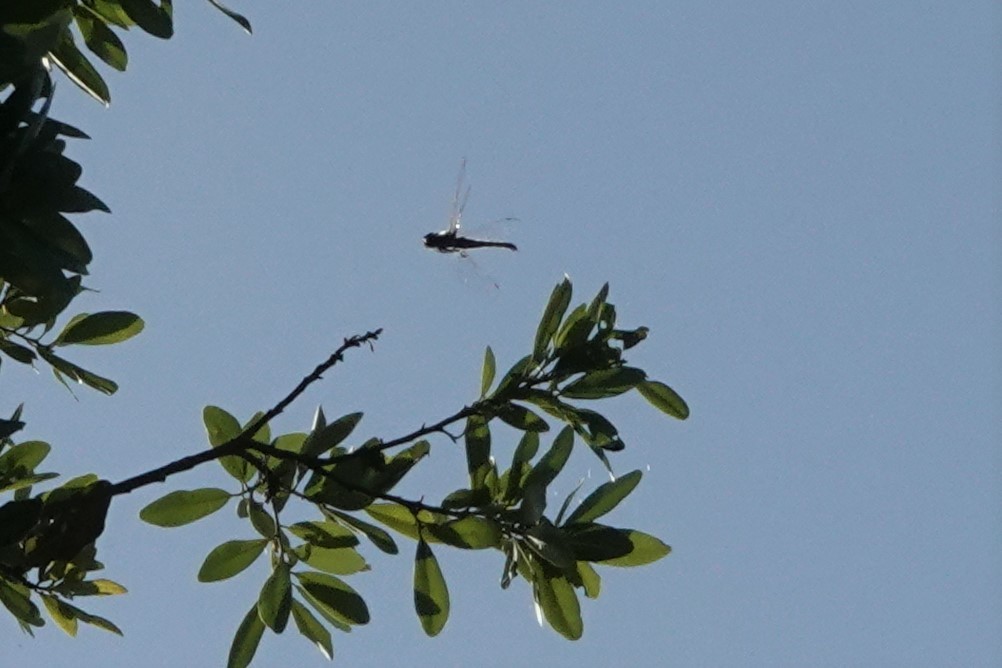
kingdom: Animalia
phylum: Arthropoda
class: Insecta
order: Odonata
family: Corduliidae
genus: Epitheca
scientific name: Epitheca cynosura
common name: Common baskettail
